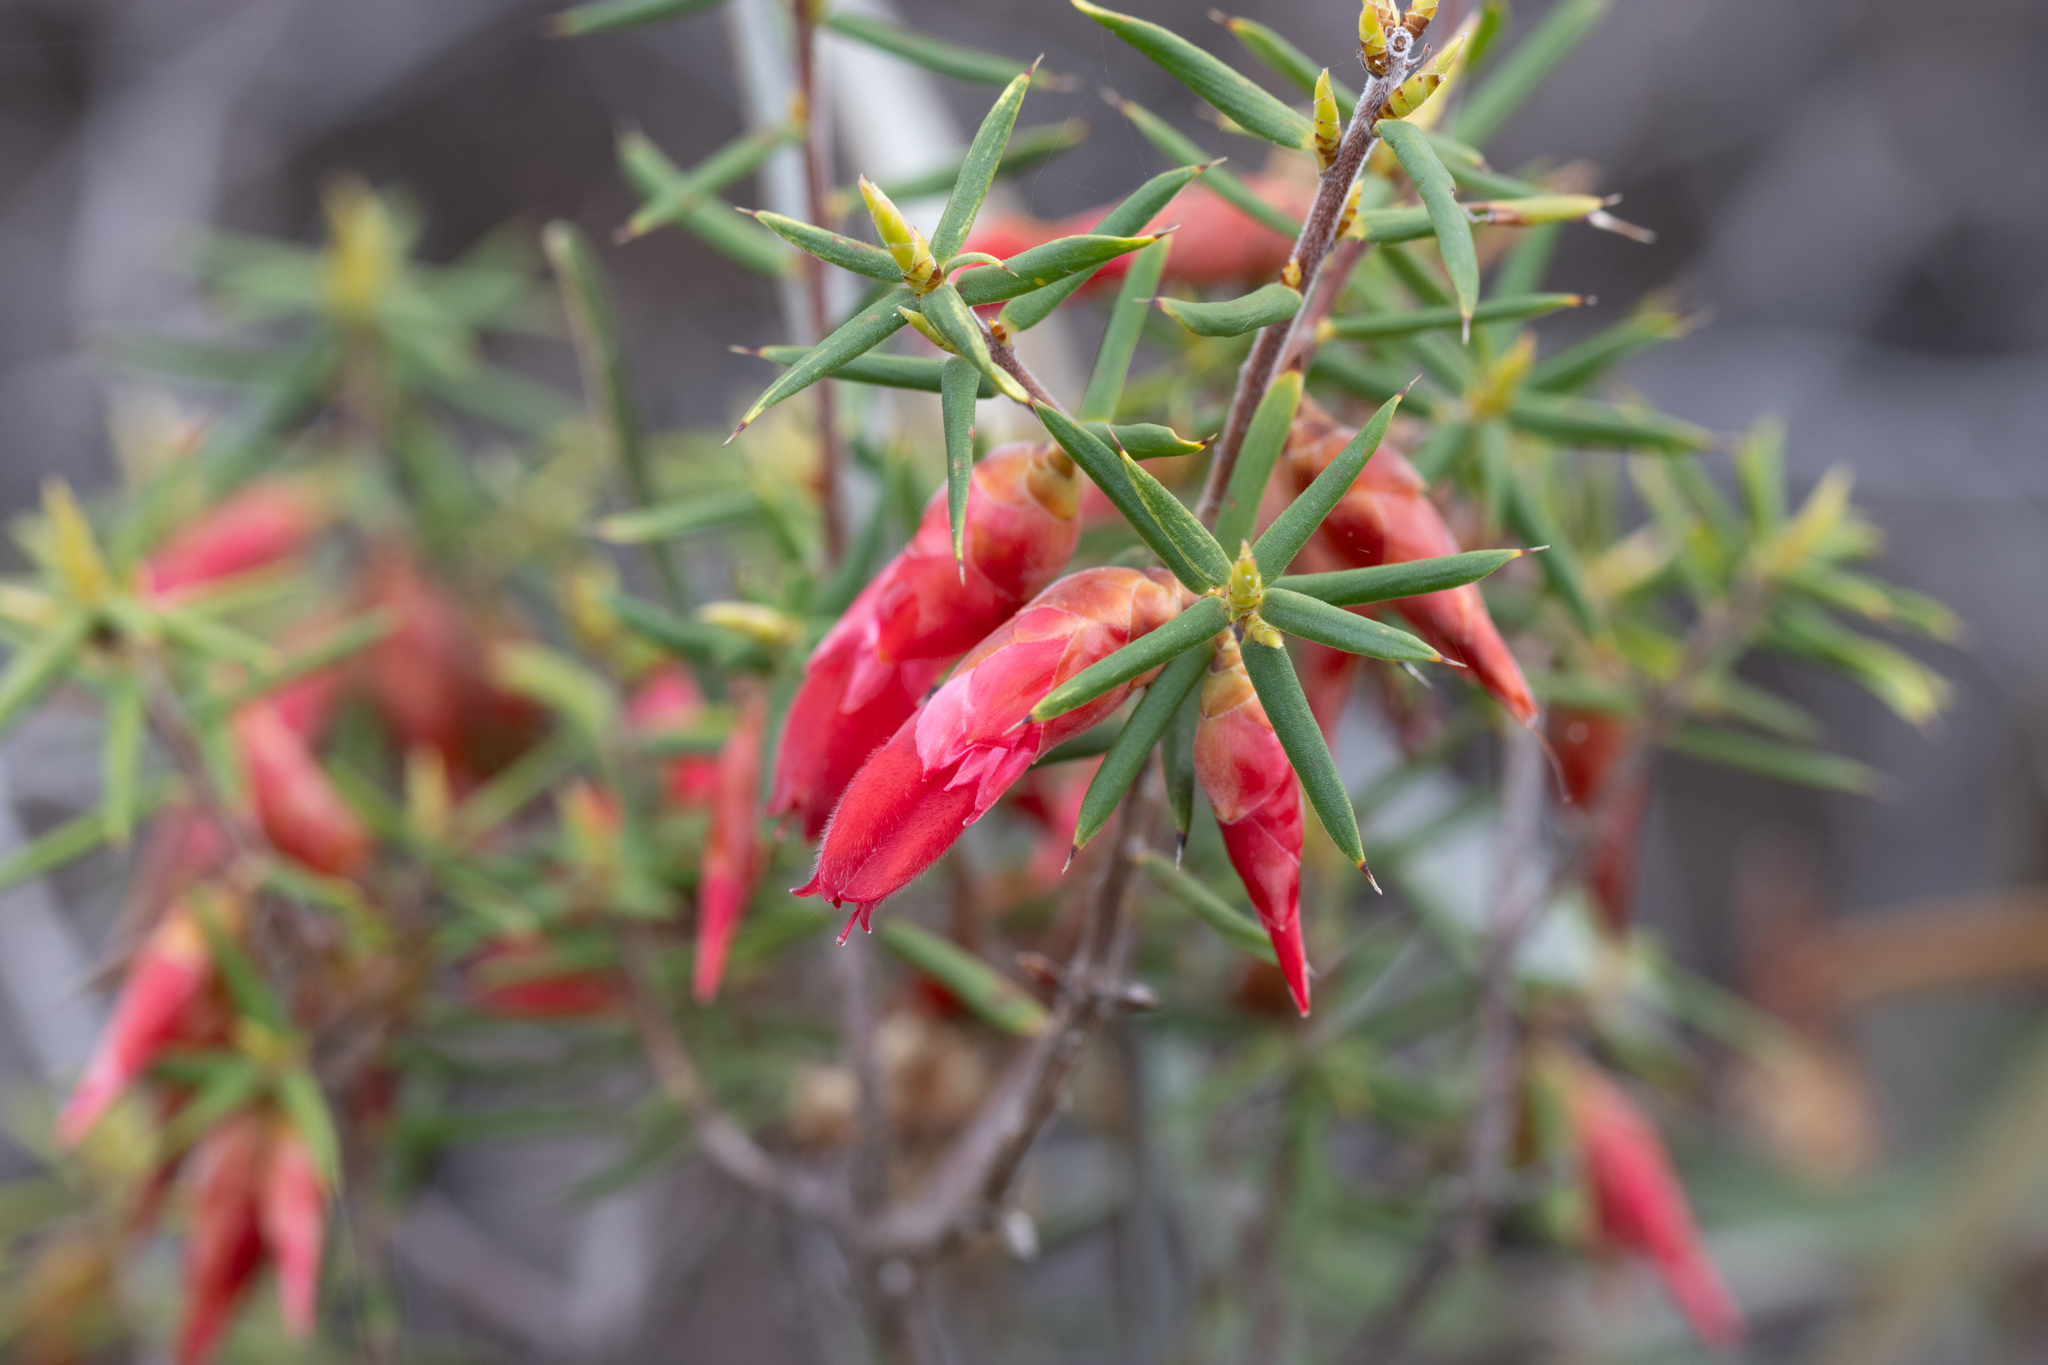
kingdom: Plantae
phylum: Tracheophyta
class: Magnoliopsida
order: Ericales
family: Ericaceae
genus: Stenanthera
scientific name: Stenanthera conostephioides
